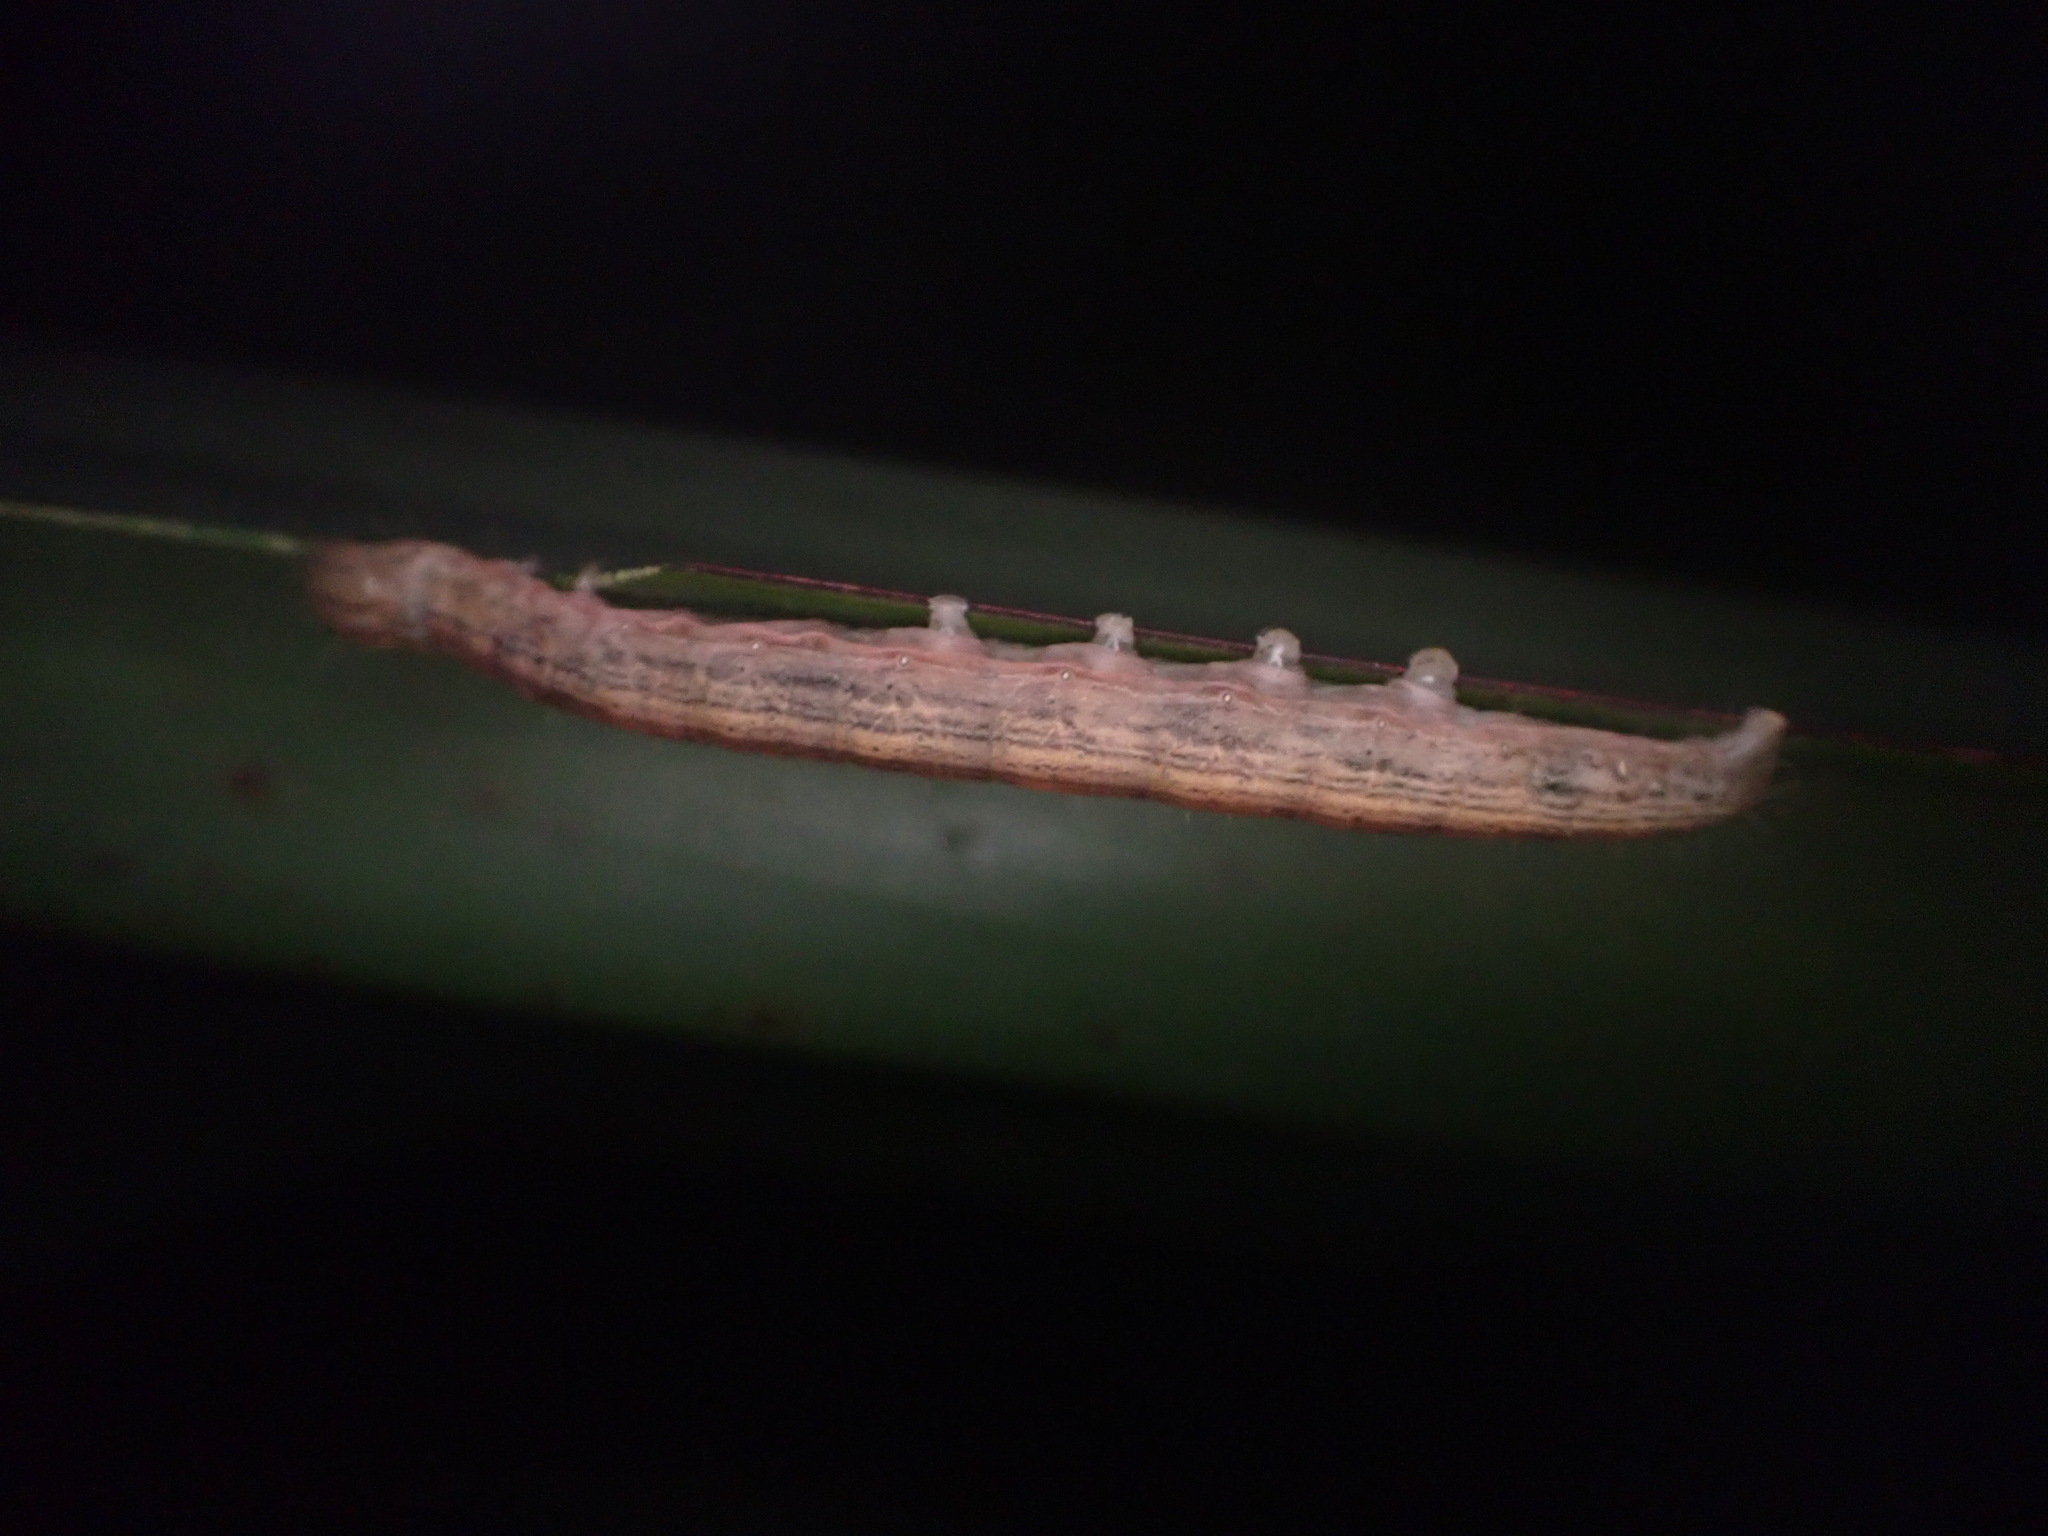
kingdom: Animalia
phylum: Arthropoda
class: Insecta
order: Lepidoptera
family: Noctuidae
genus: Ichneutica
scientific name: Ichneutica
